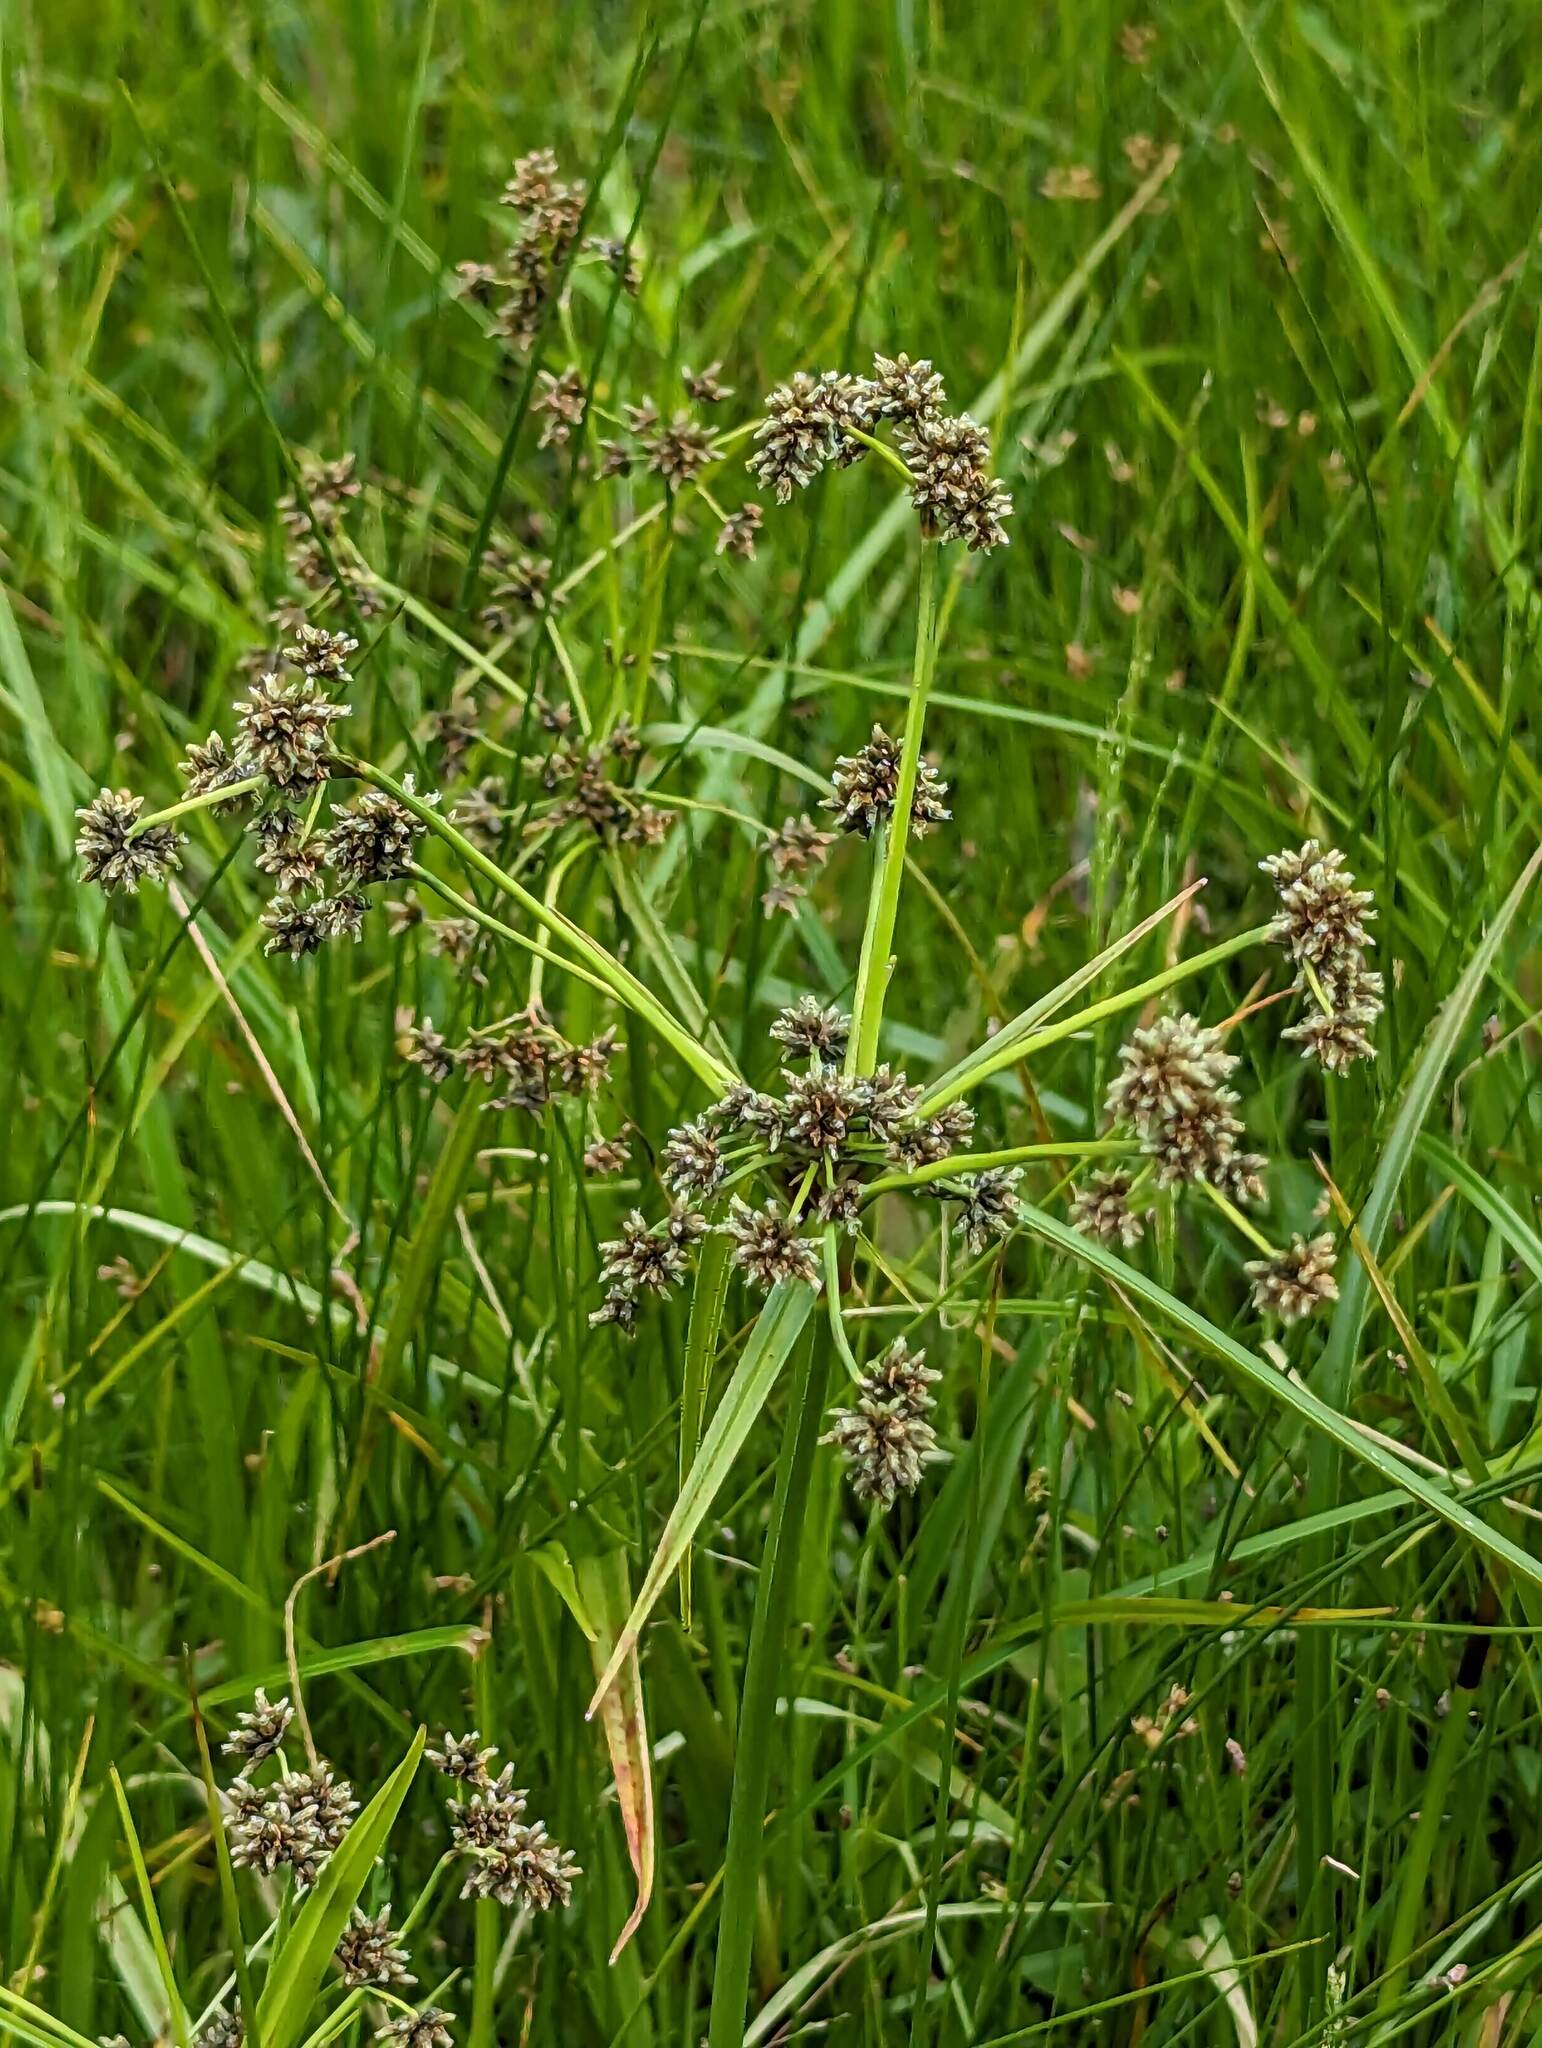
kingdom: Plantae
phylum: Tracheophyta
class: Liliopsida
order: Poales
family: Cyperaceae
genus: Scirpus
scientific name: Scirpus microcarpus
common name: Panicled bulrush
